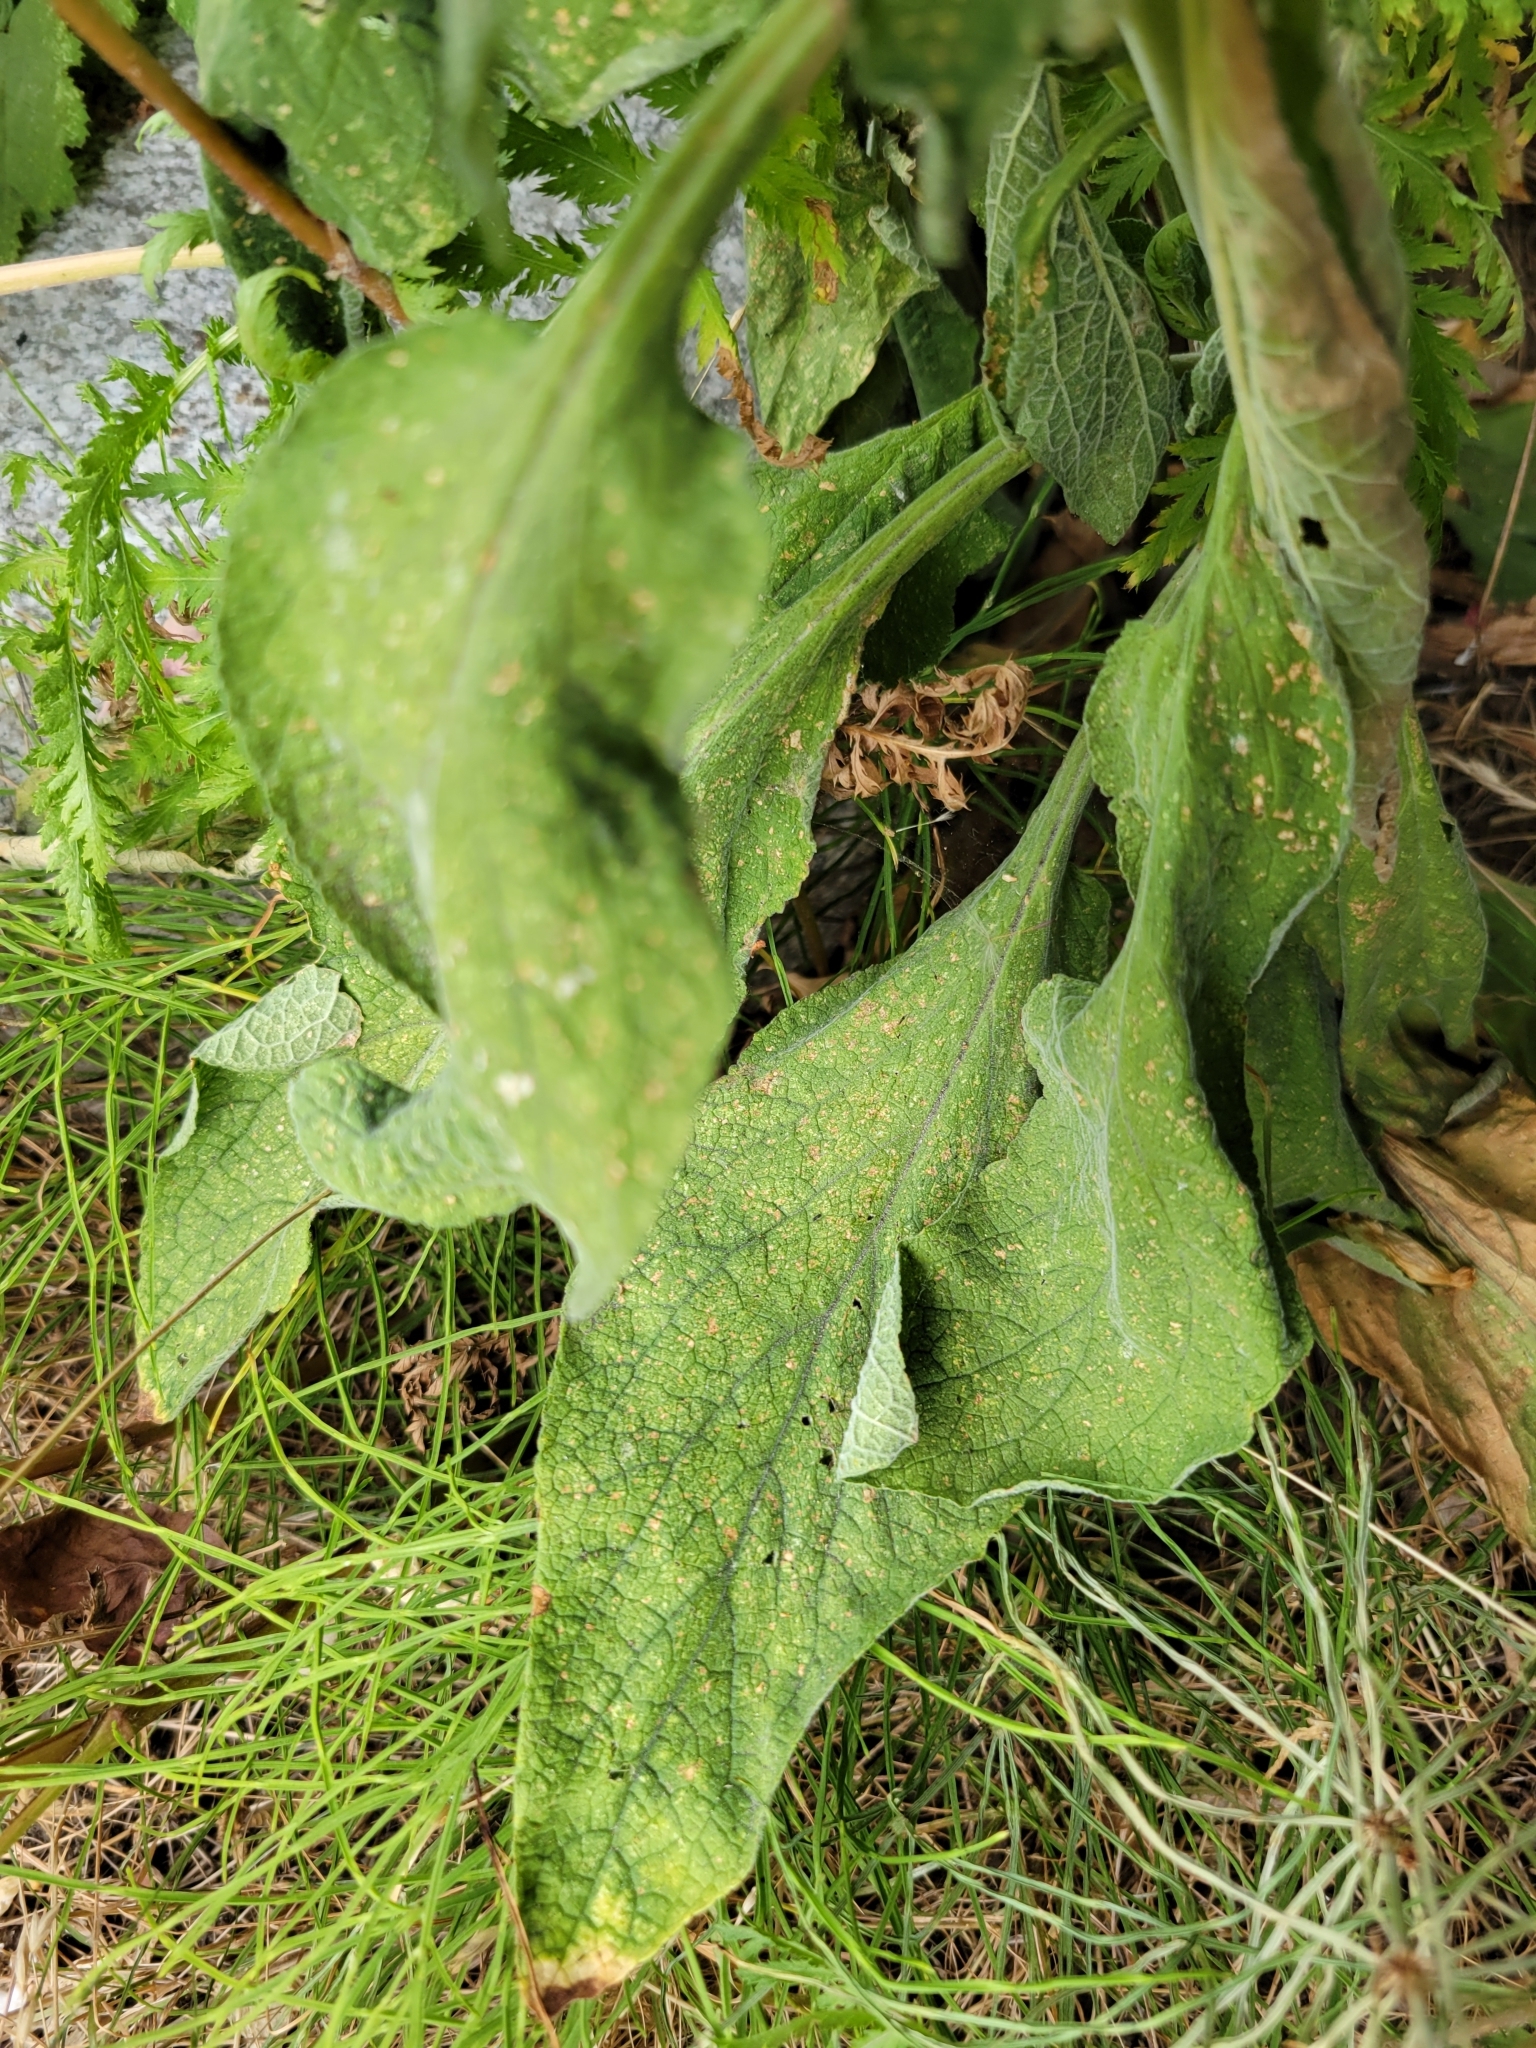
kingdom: Plantae
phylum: Tracheophyta
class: Magnoliopsida
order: Lamiales
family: Plantaginaceae
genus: Digitalis
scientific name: Digitalis purpurea
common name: Foxglove
